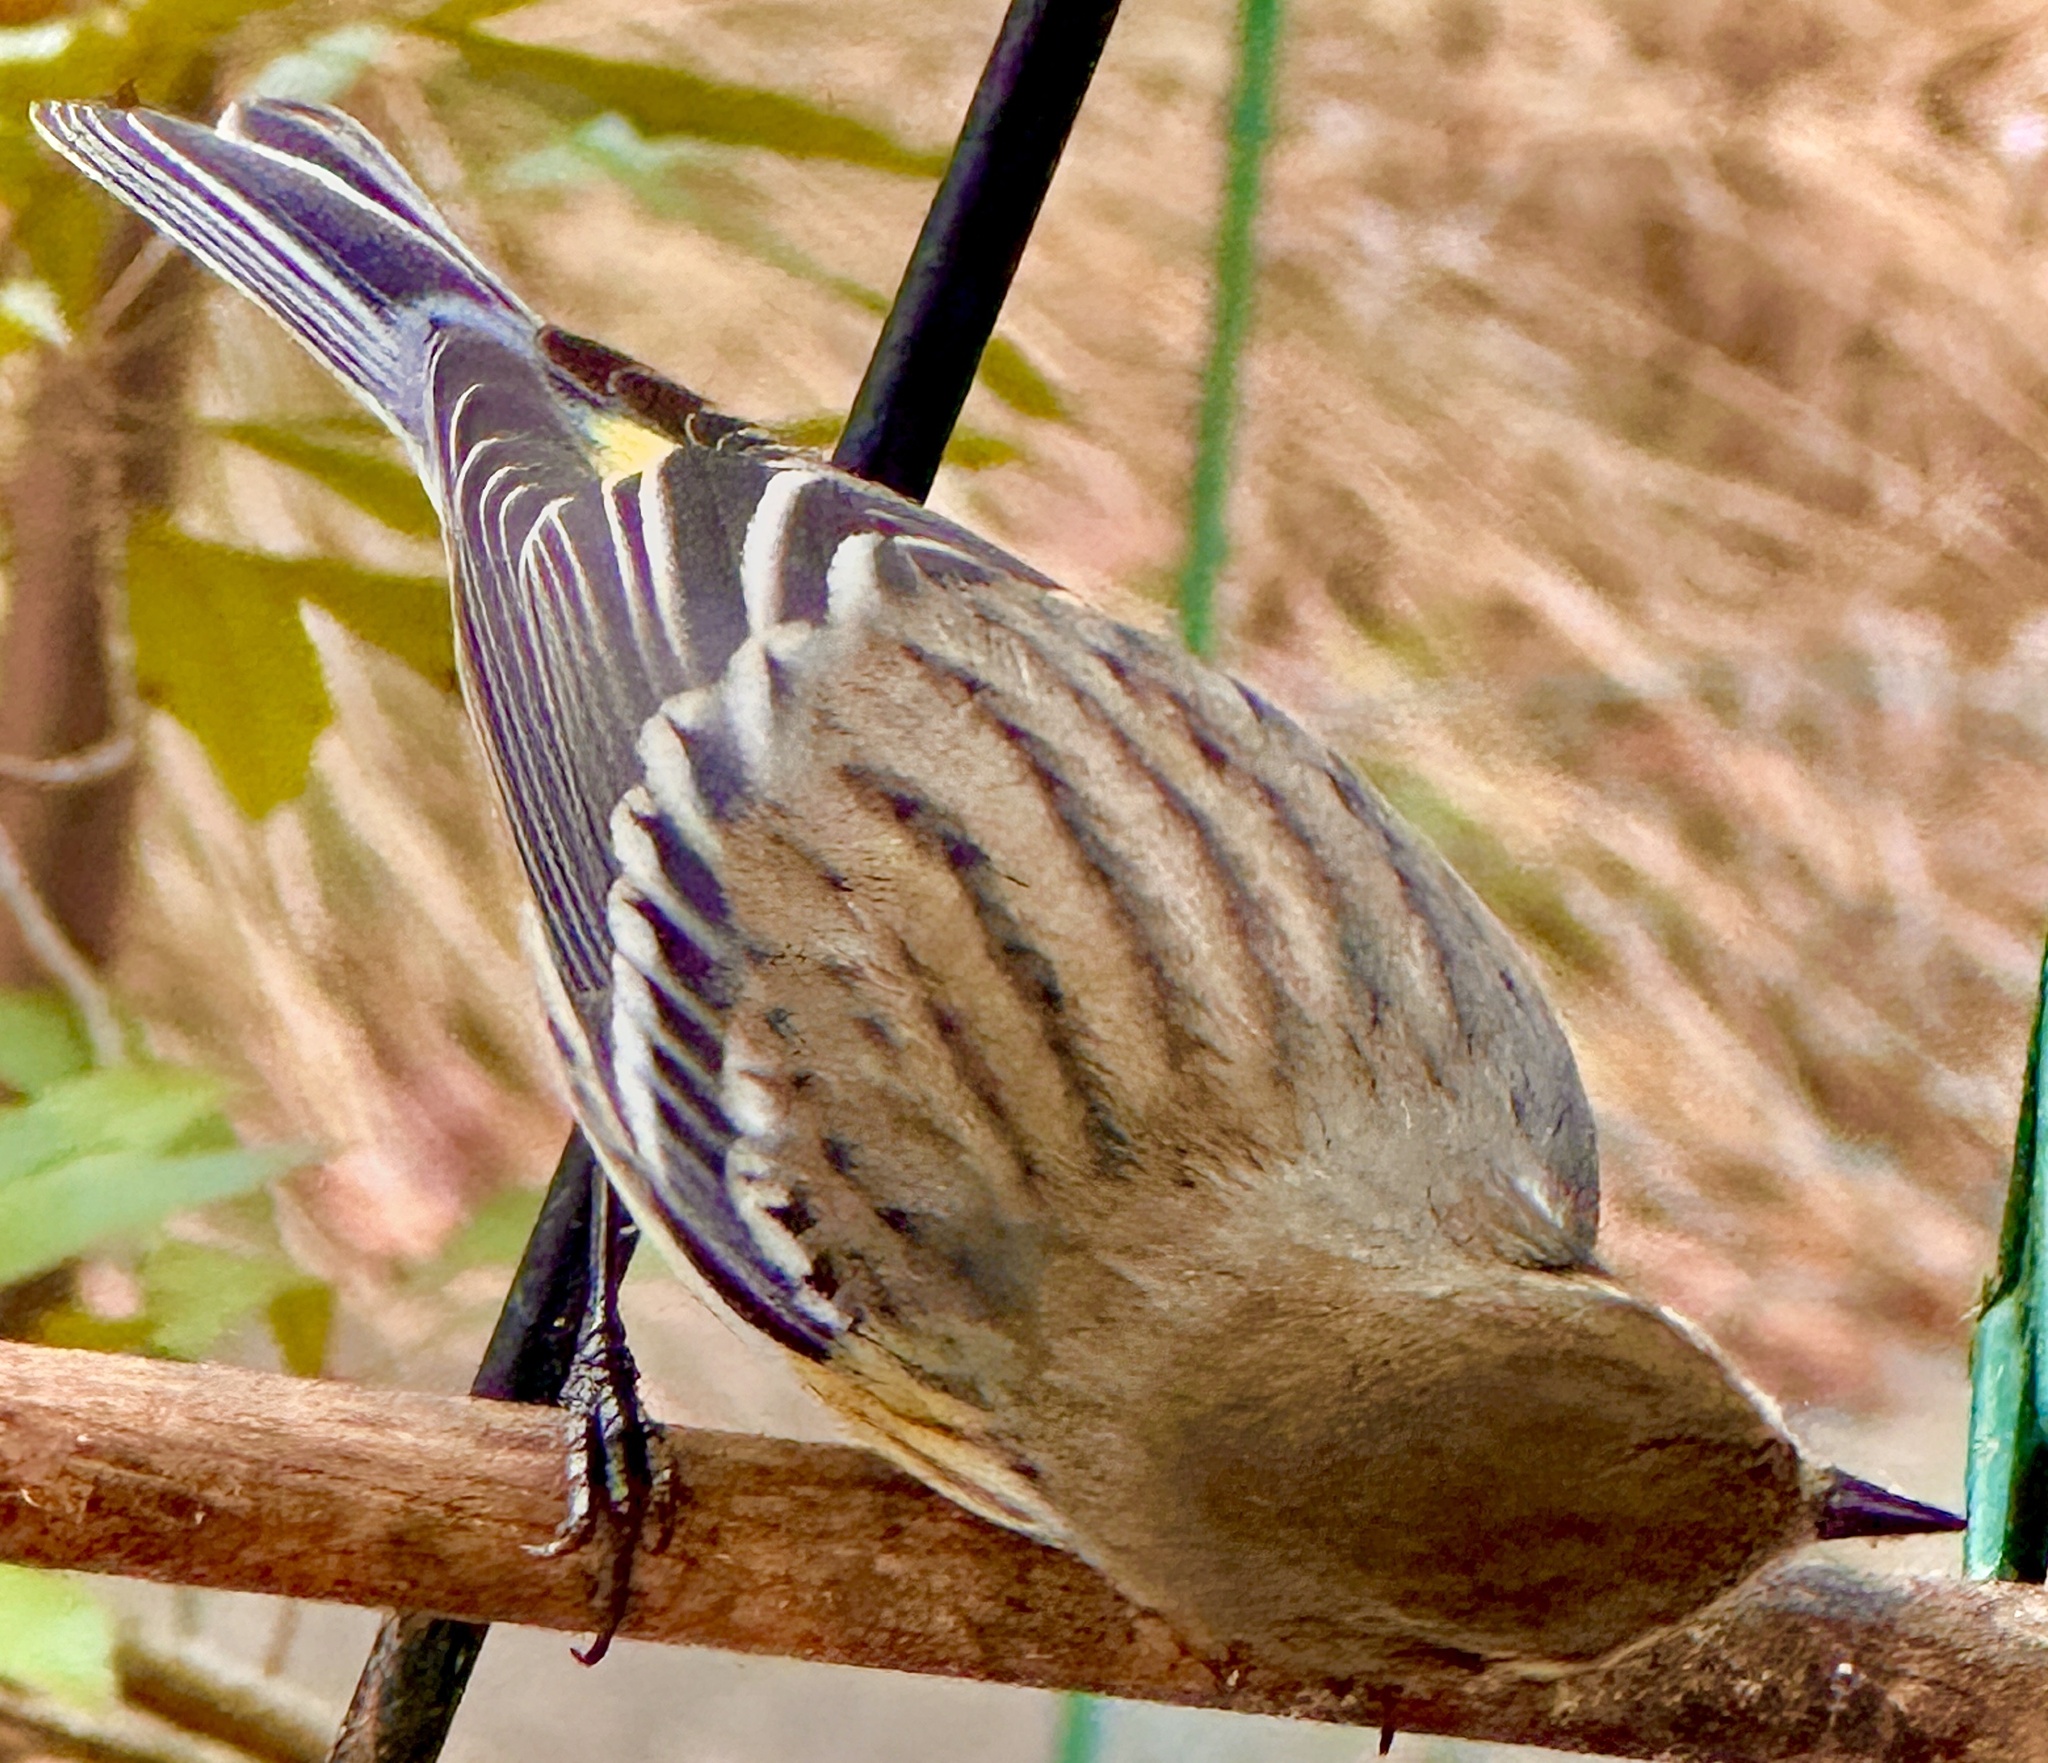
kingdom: Animalia
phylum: Chordata
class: Aves
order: Passeriformes
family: Parulidae
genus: Setophaga
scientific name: Setophaga coronata
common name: Myrtle warbler
